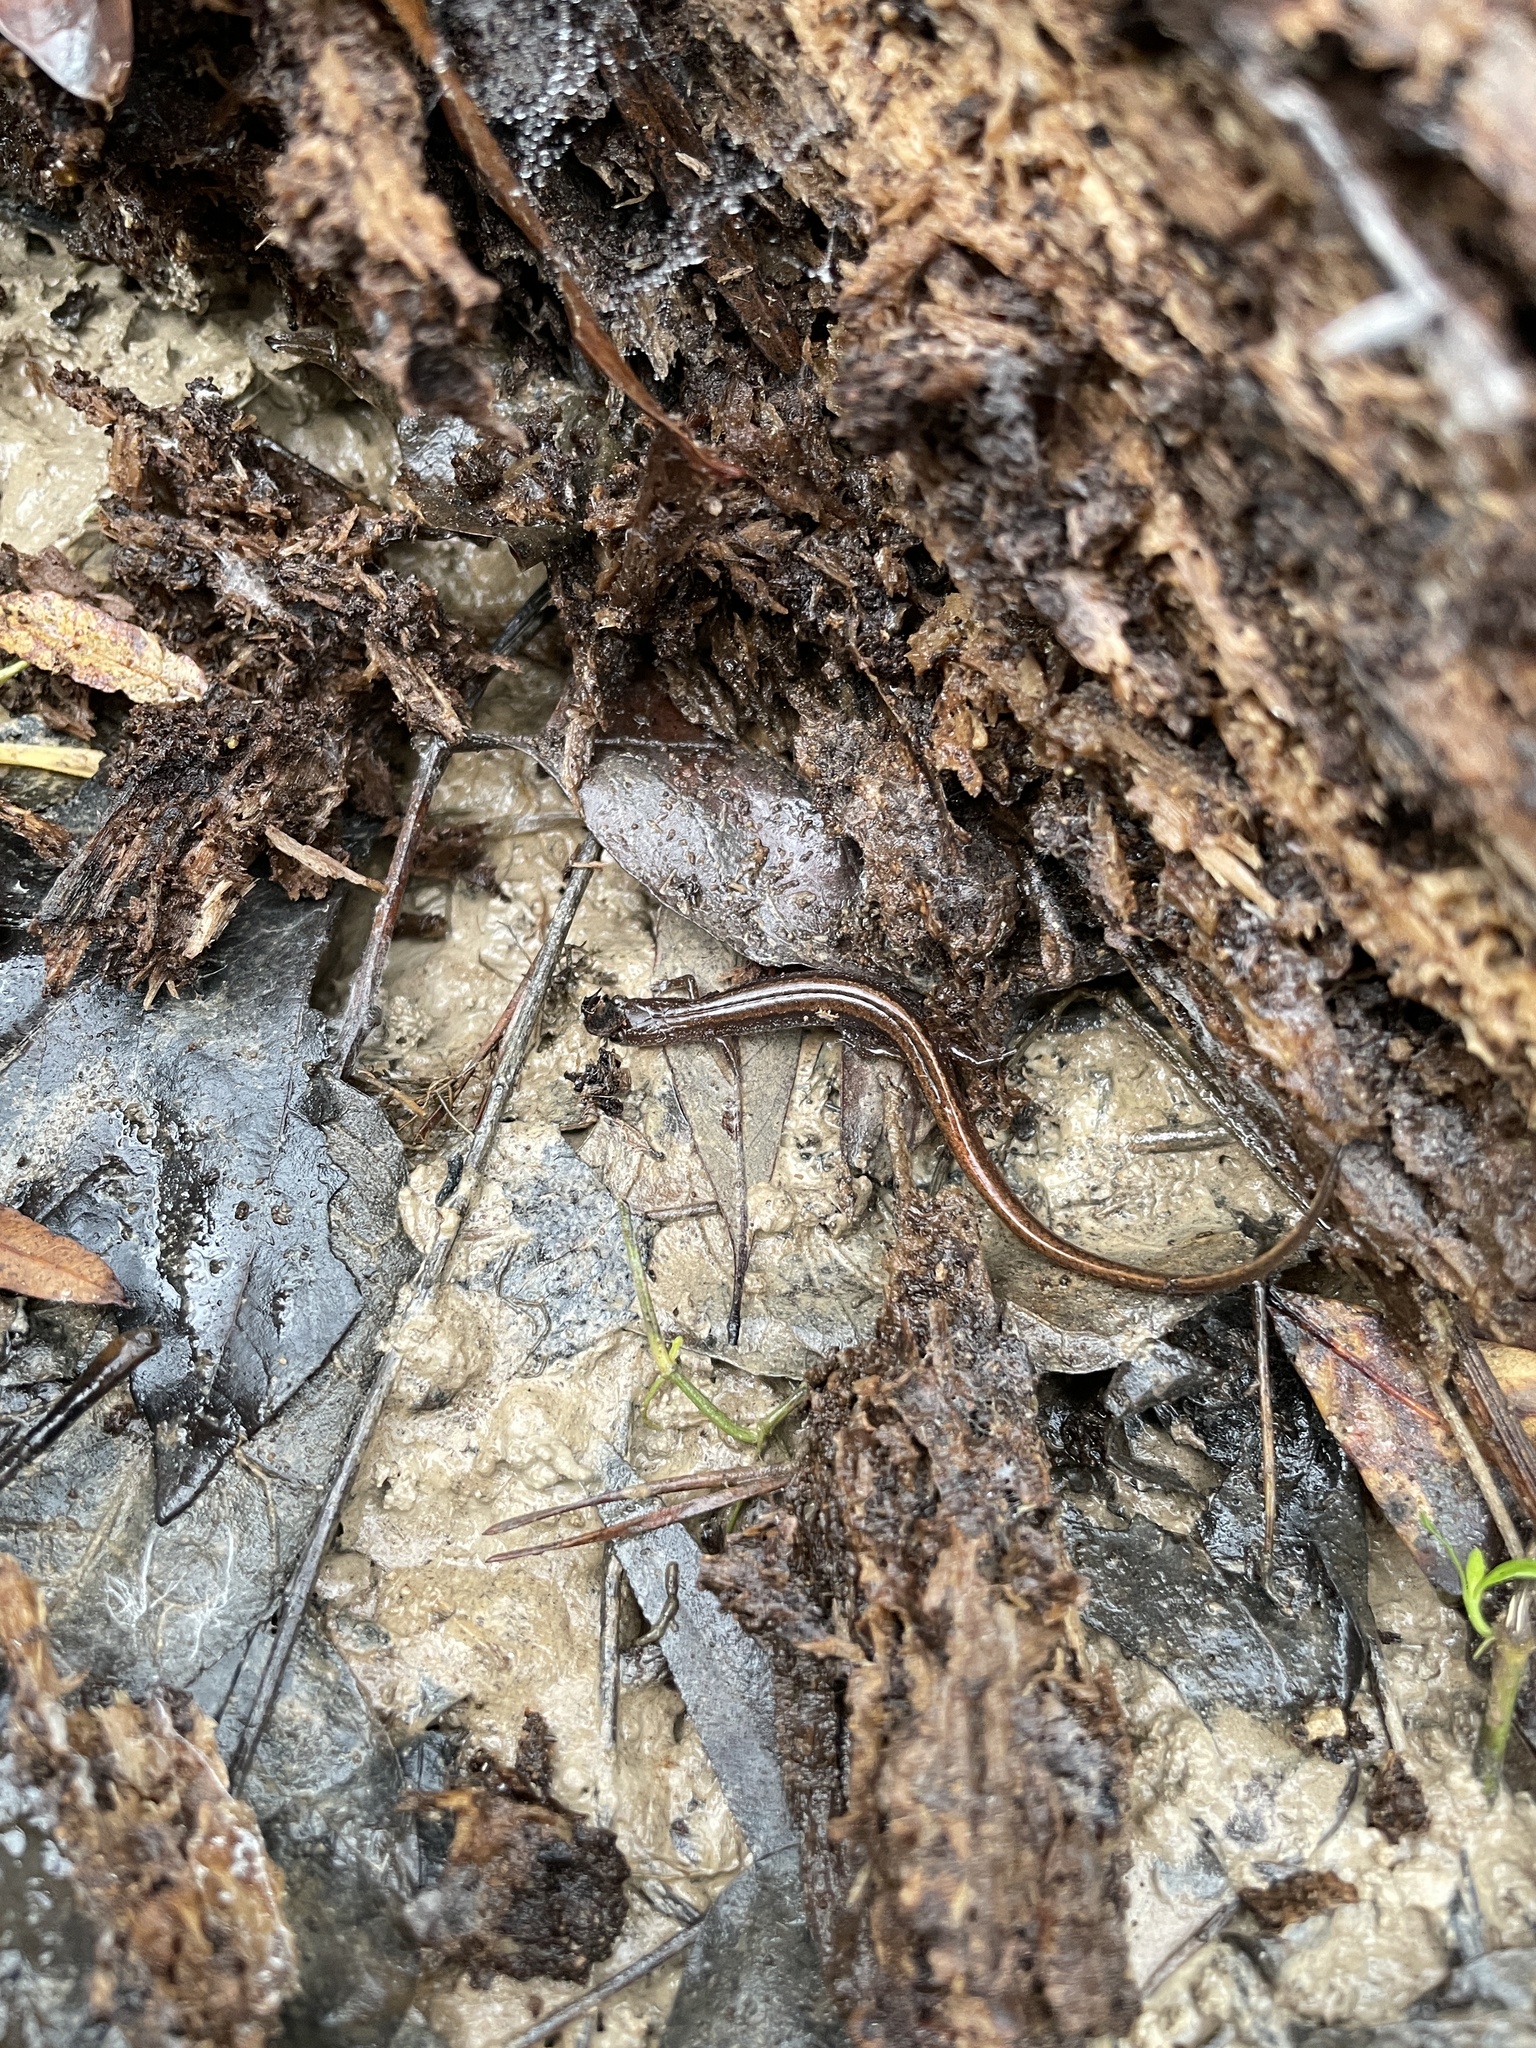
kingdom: Animalia
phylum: Chordata
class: Amphibia
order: Caudata
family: Plethodontidae
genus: Eurycea
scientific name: Eurycea paludicola
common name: Western dwarf salamander
